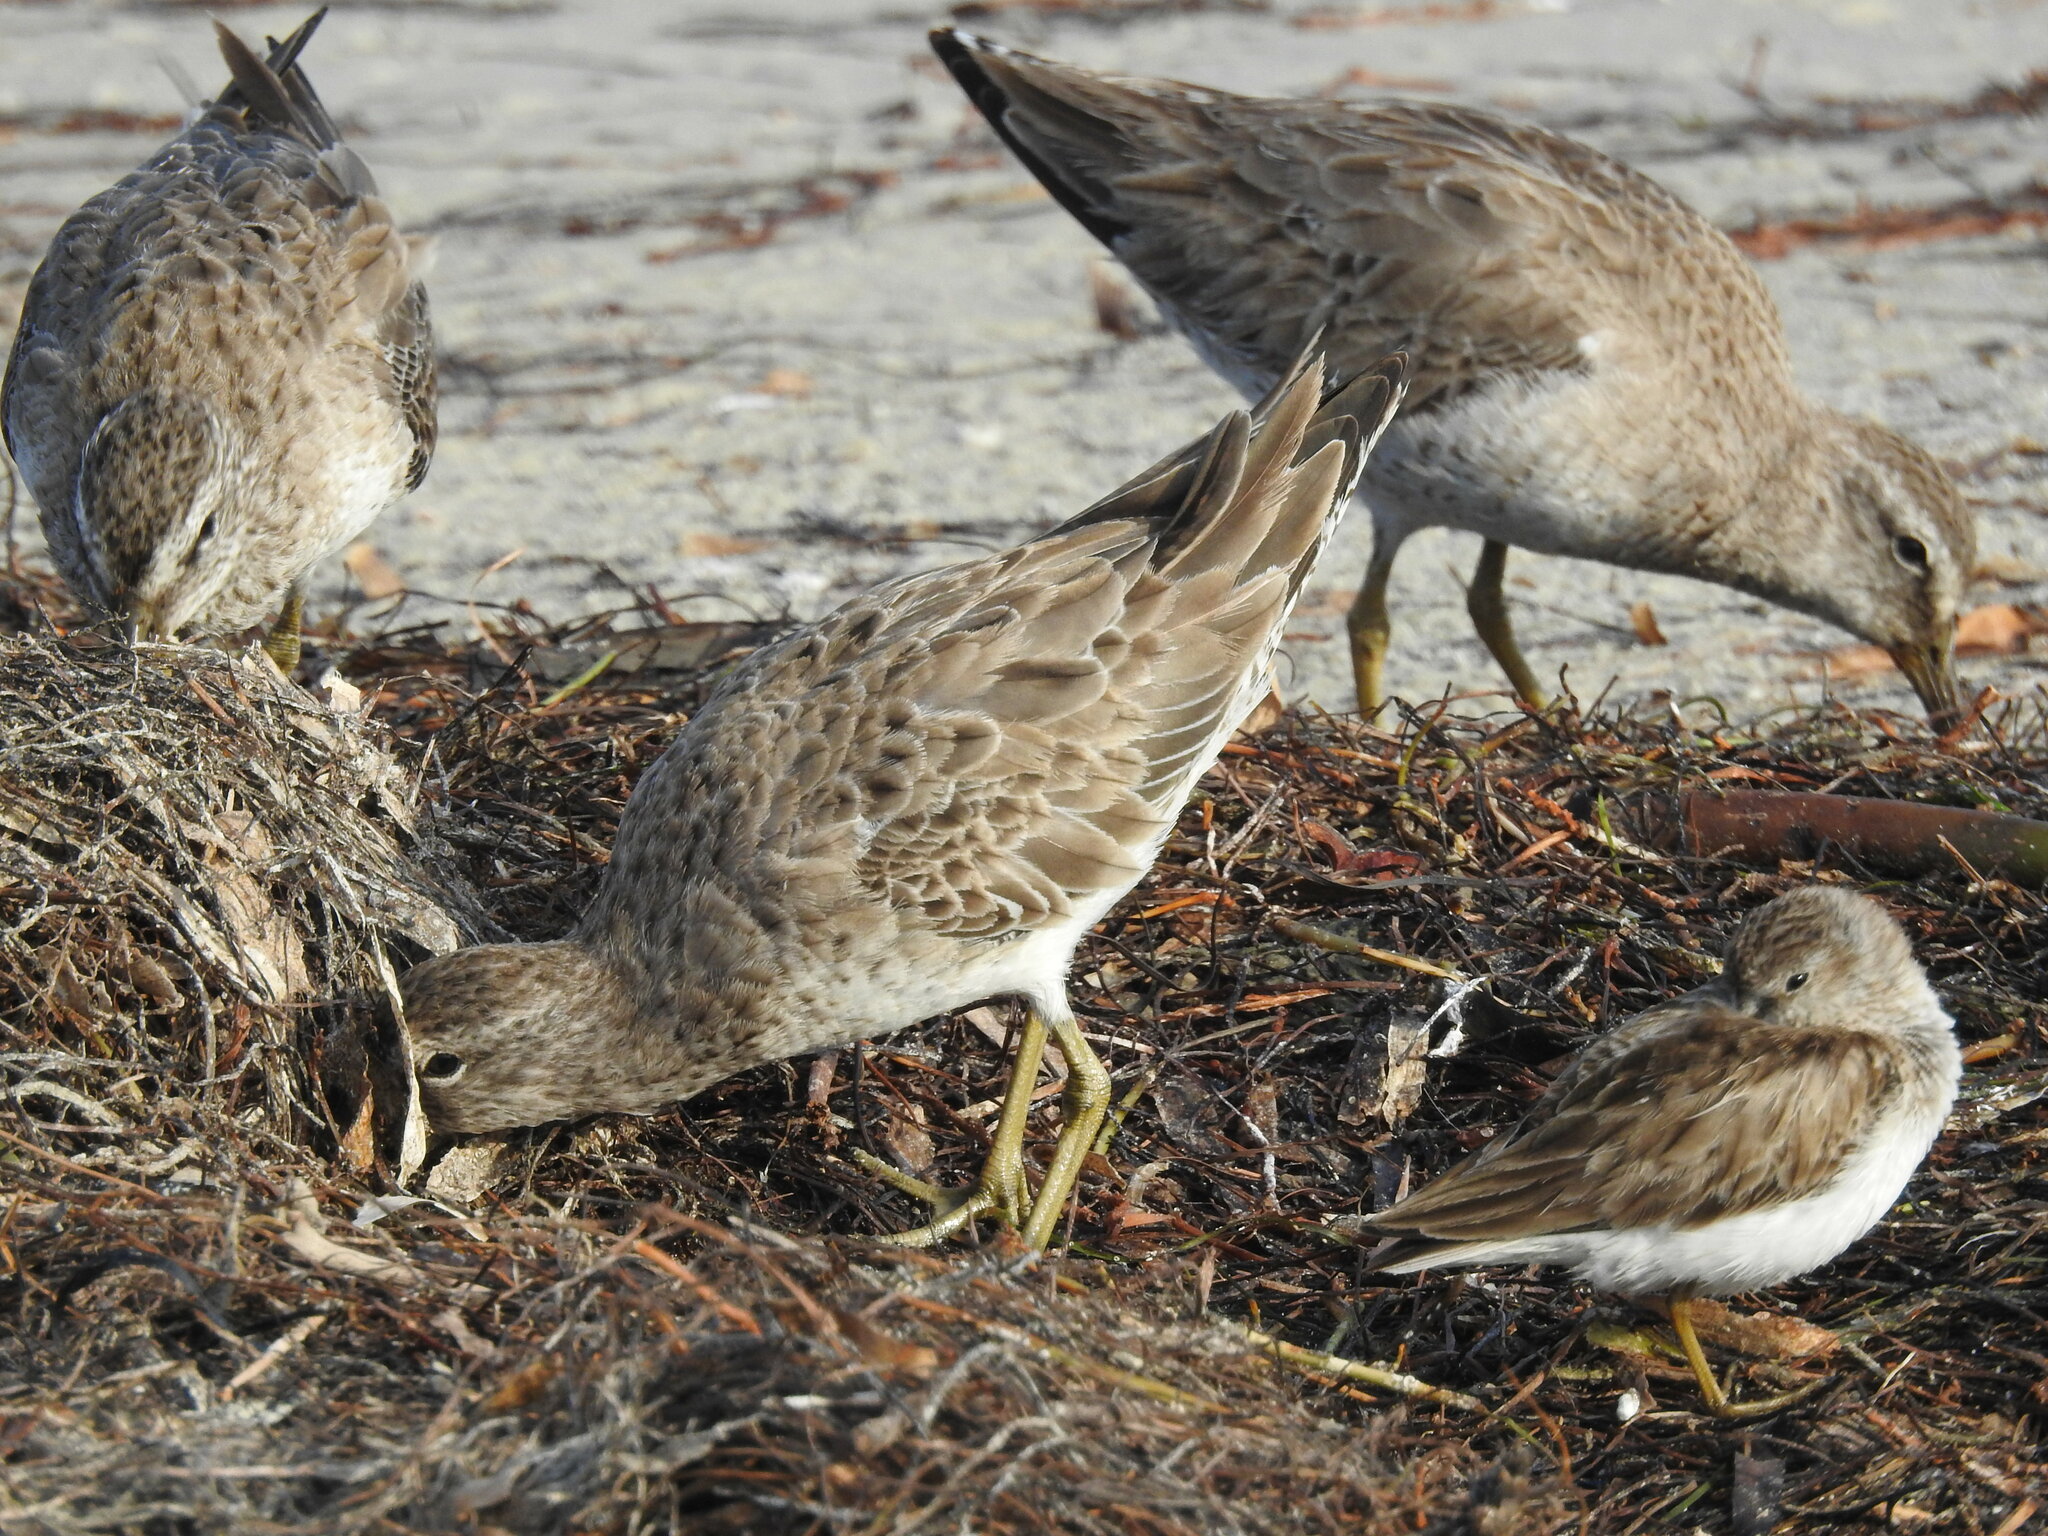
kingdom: Animalia
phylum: Chordata
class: Aves
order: Charadriiformes
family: Scolopacidae
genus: Limnodromus
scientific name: Limnodromus griseus
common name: Short-billed dowitcher
